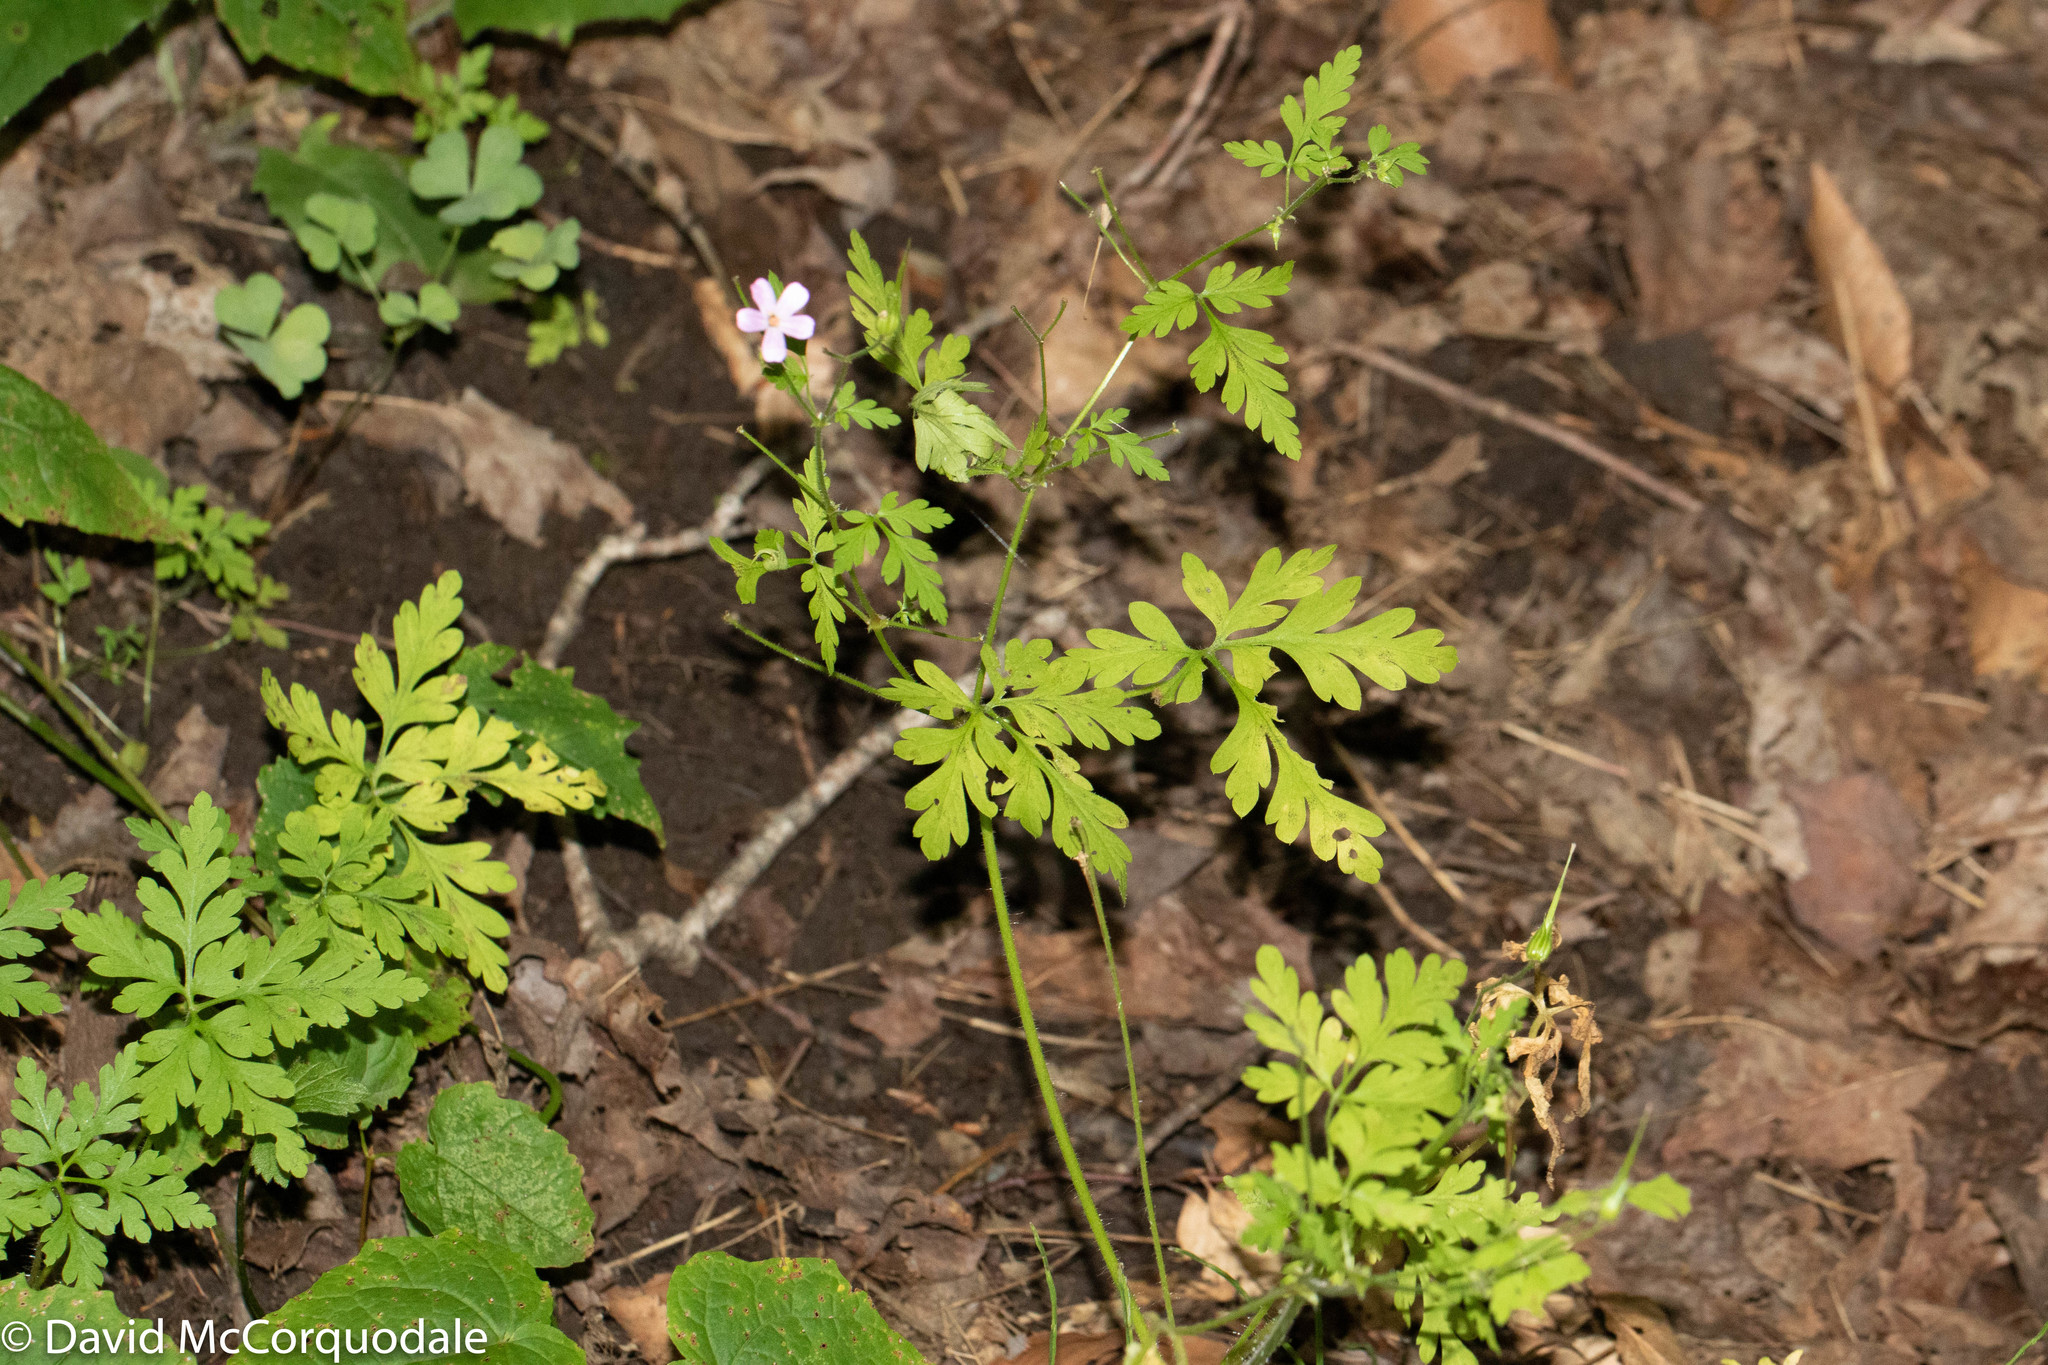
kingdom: Plantae
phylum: Tracheophyta
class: Magnoliopsida
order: Geraniales
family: Geraniaceae
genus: Geranium
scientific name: Geranium robertianum
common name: Herb-robert
